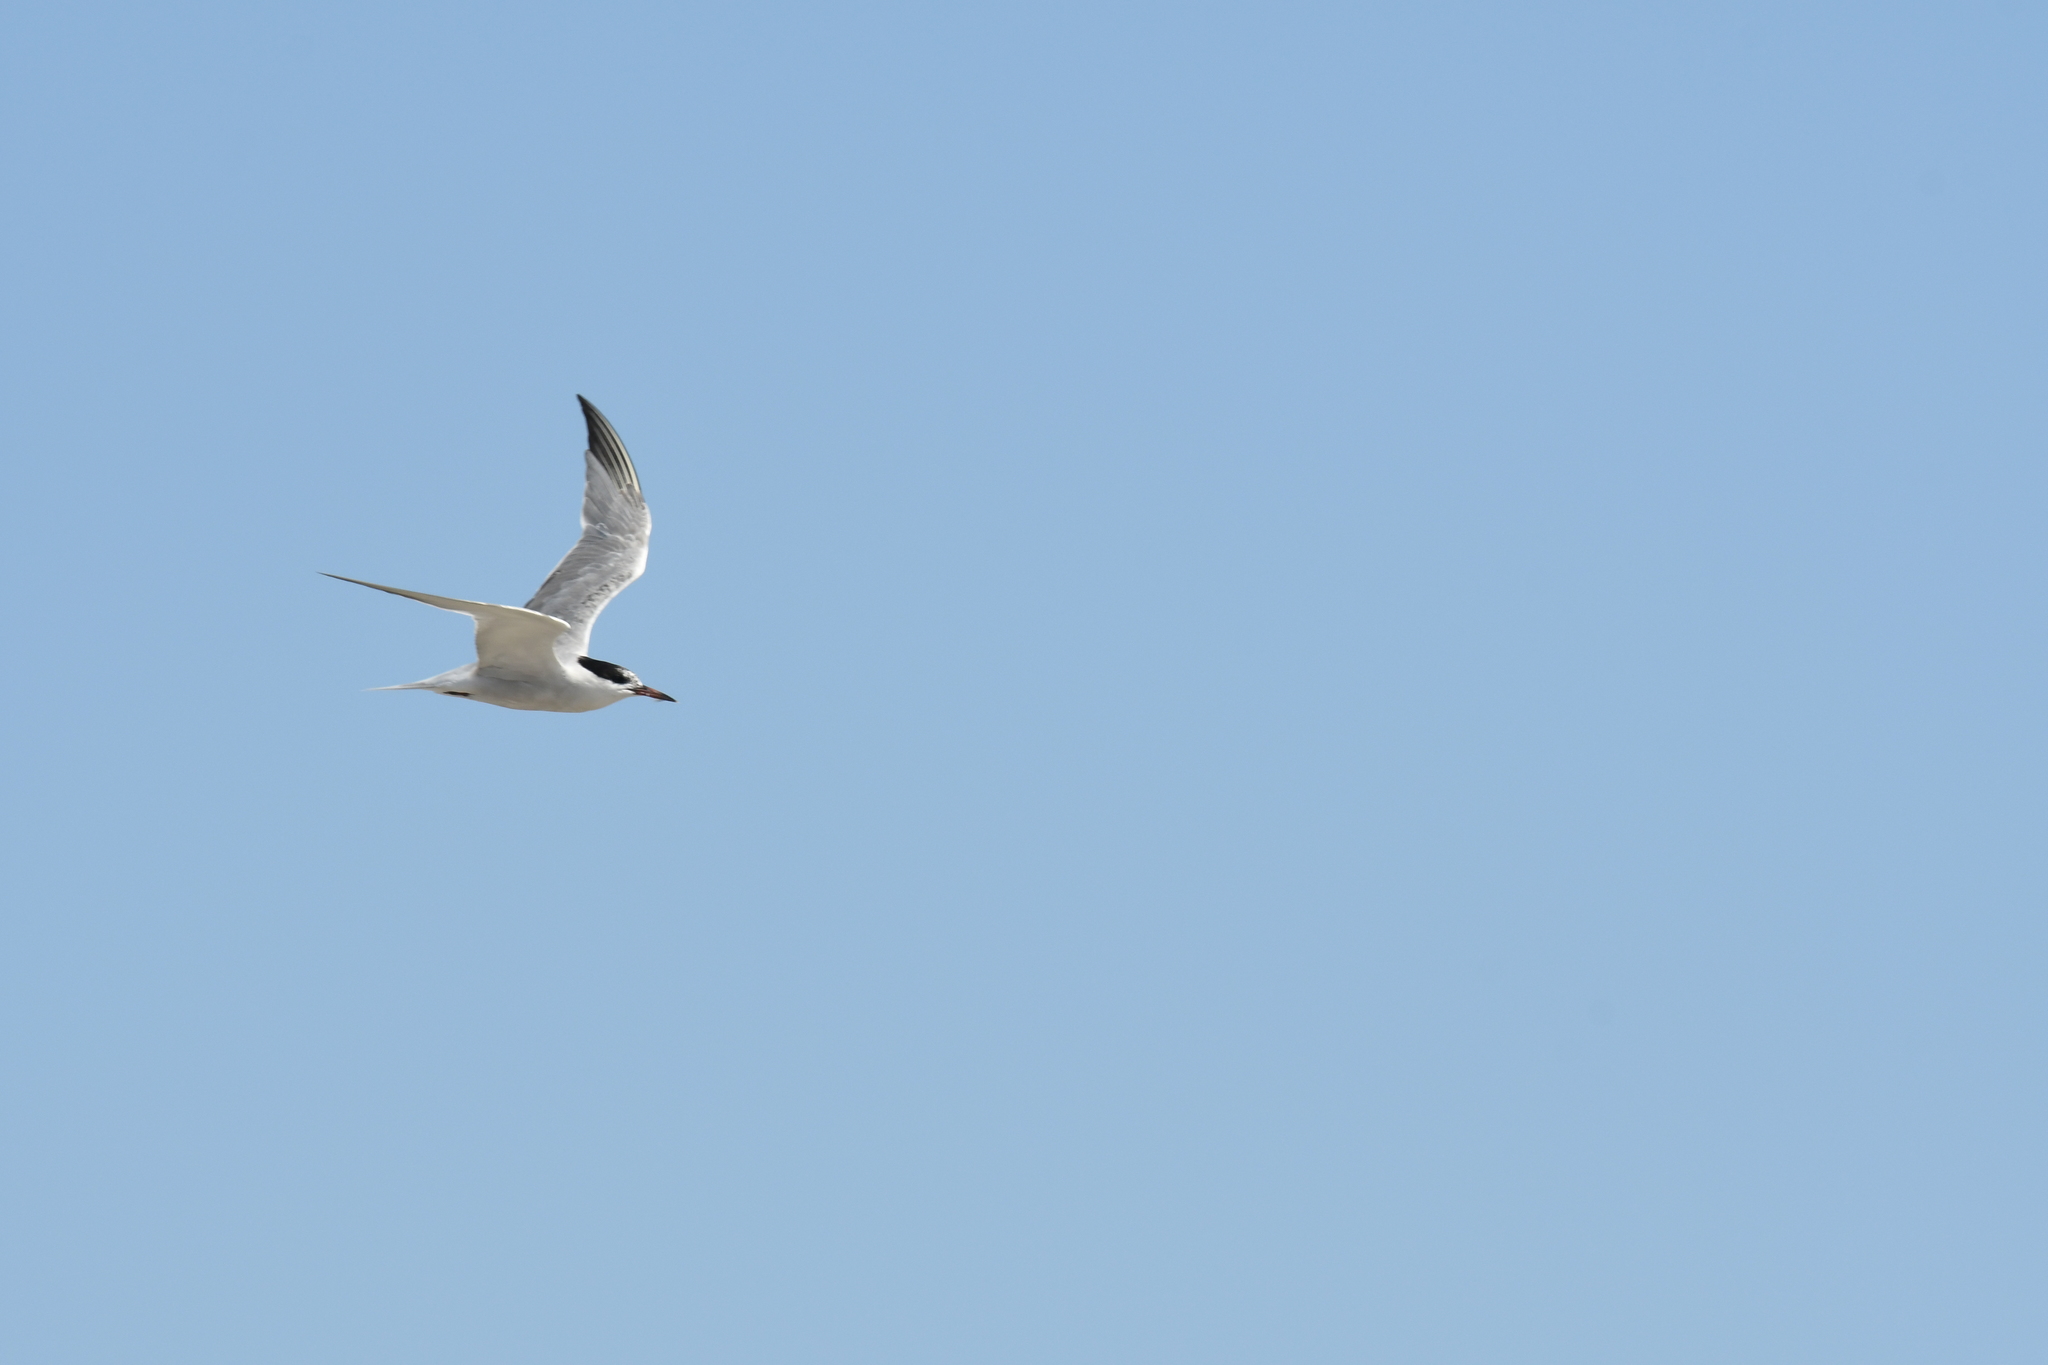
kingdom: Animalia
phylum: Chordata
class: Aves
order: Charadriiformes
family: Laridae
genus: Thalasseus
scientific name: Thalasseus sandvicensis
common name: Sandwich tern
